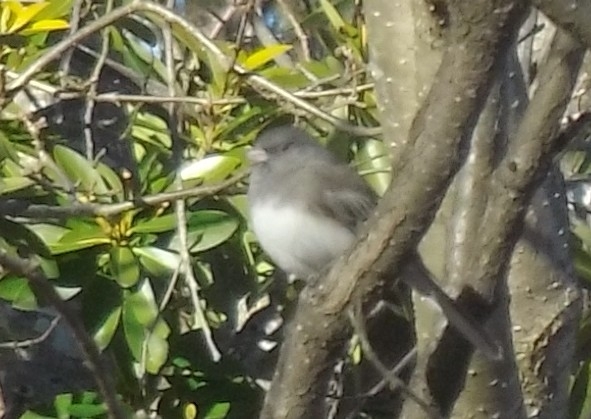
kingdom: Animalia
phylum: Chordata
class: Aves
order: Passeriformes
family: Passerellidae
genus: Junco
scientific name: Junco hyemalis
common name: Dark-eyed junco
